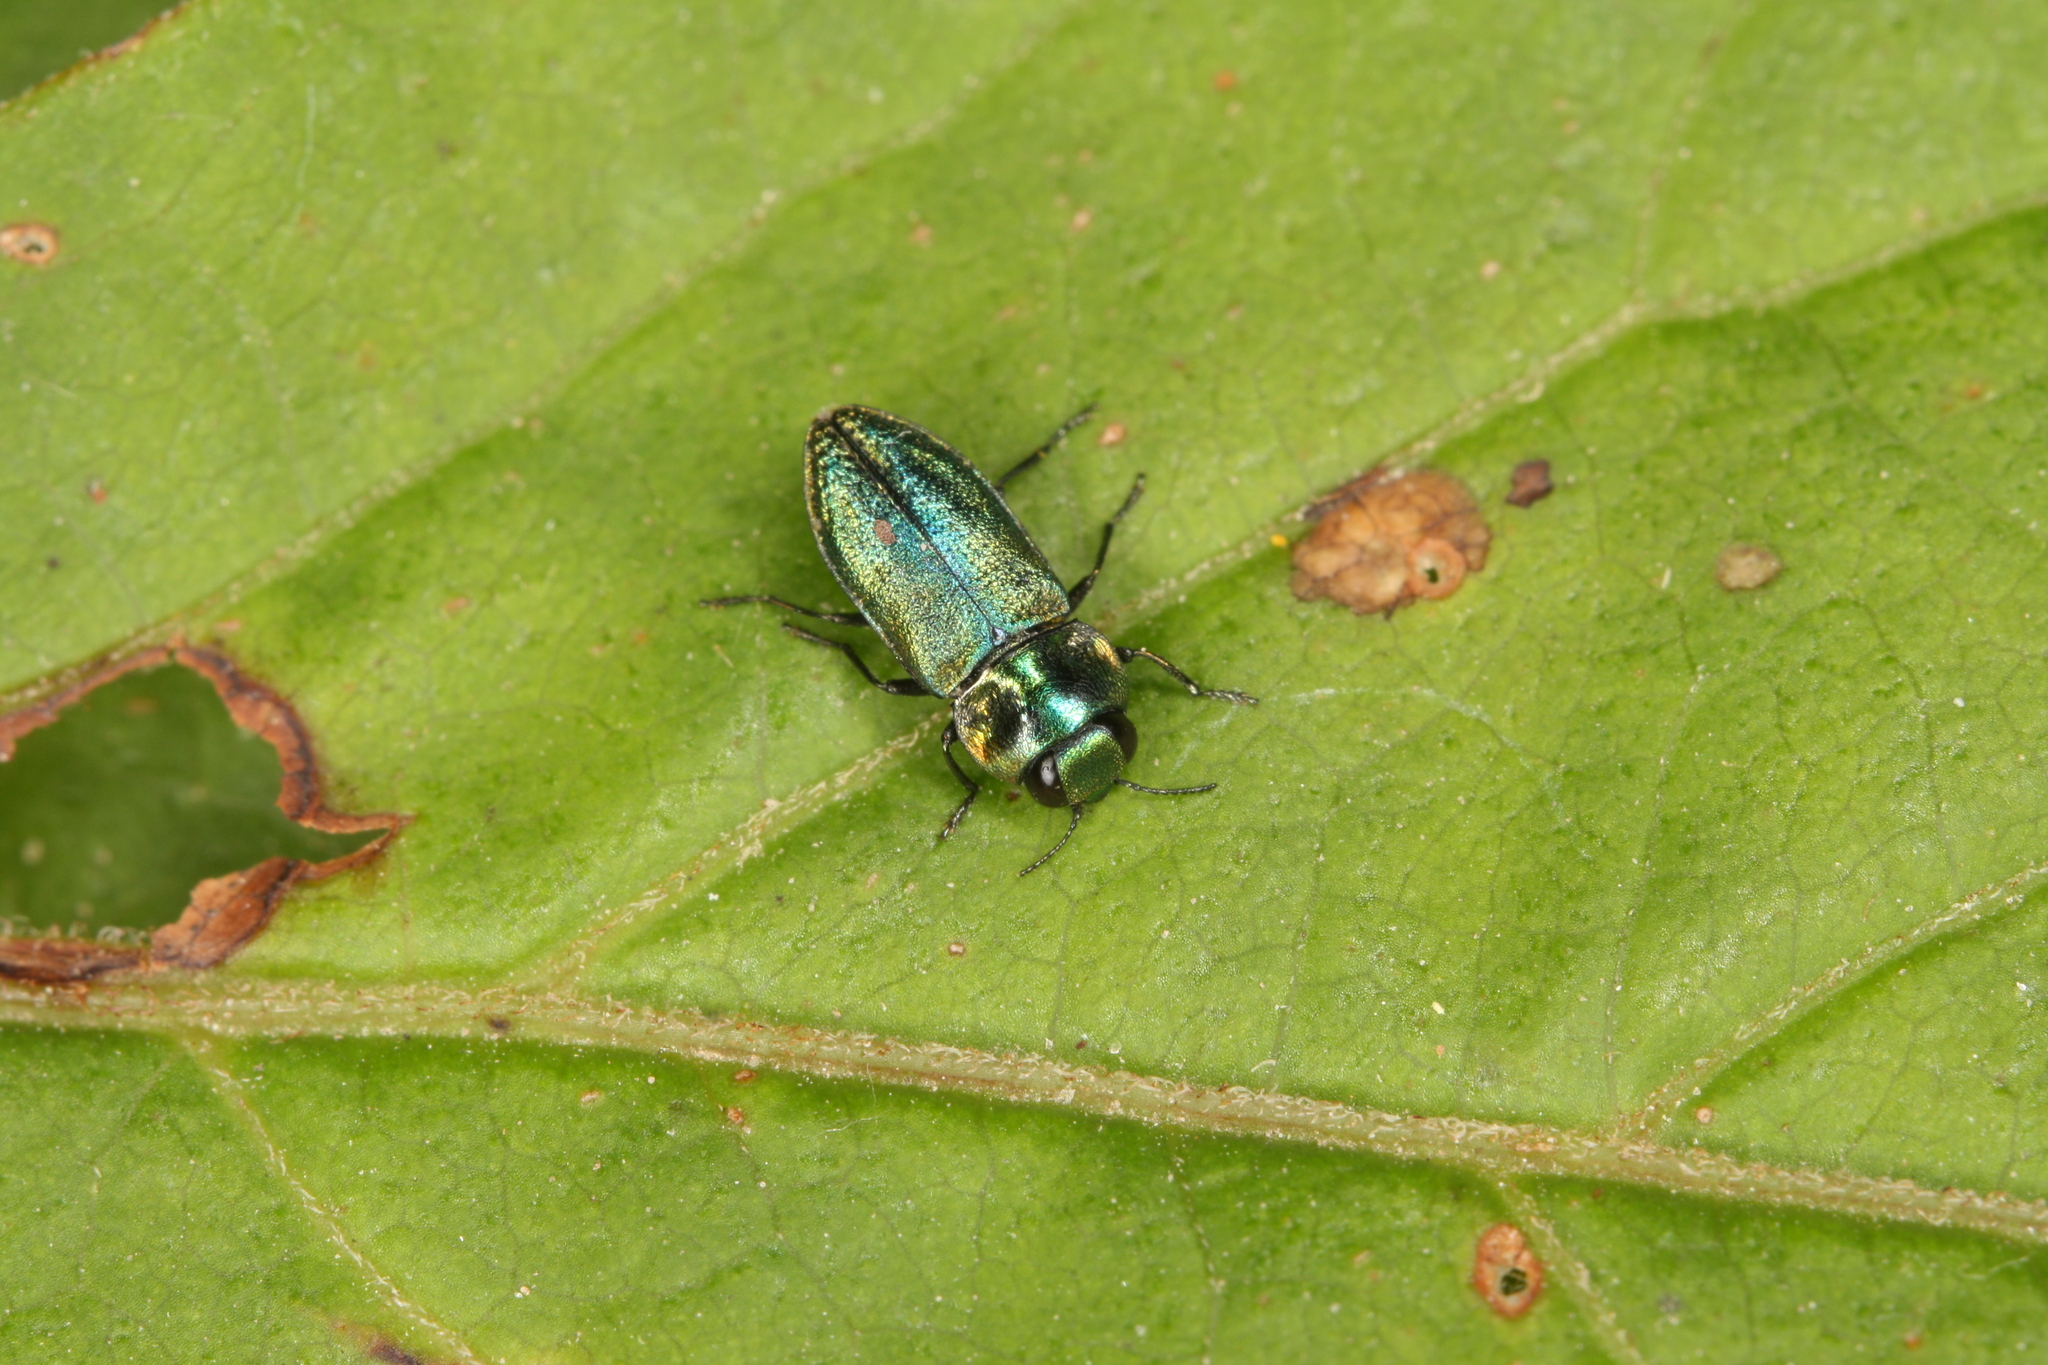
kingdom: Animalia
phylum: Arthropoda
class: Insecta
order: Coleoptera
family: Buprestidae
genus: Anthaxia
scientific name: Anthaxia fulgurans
